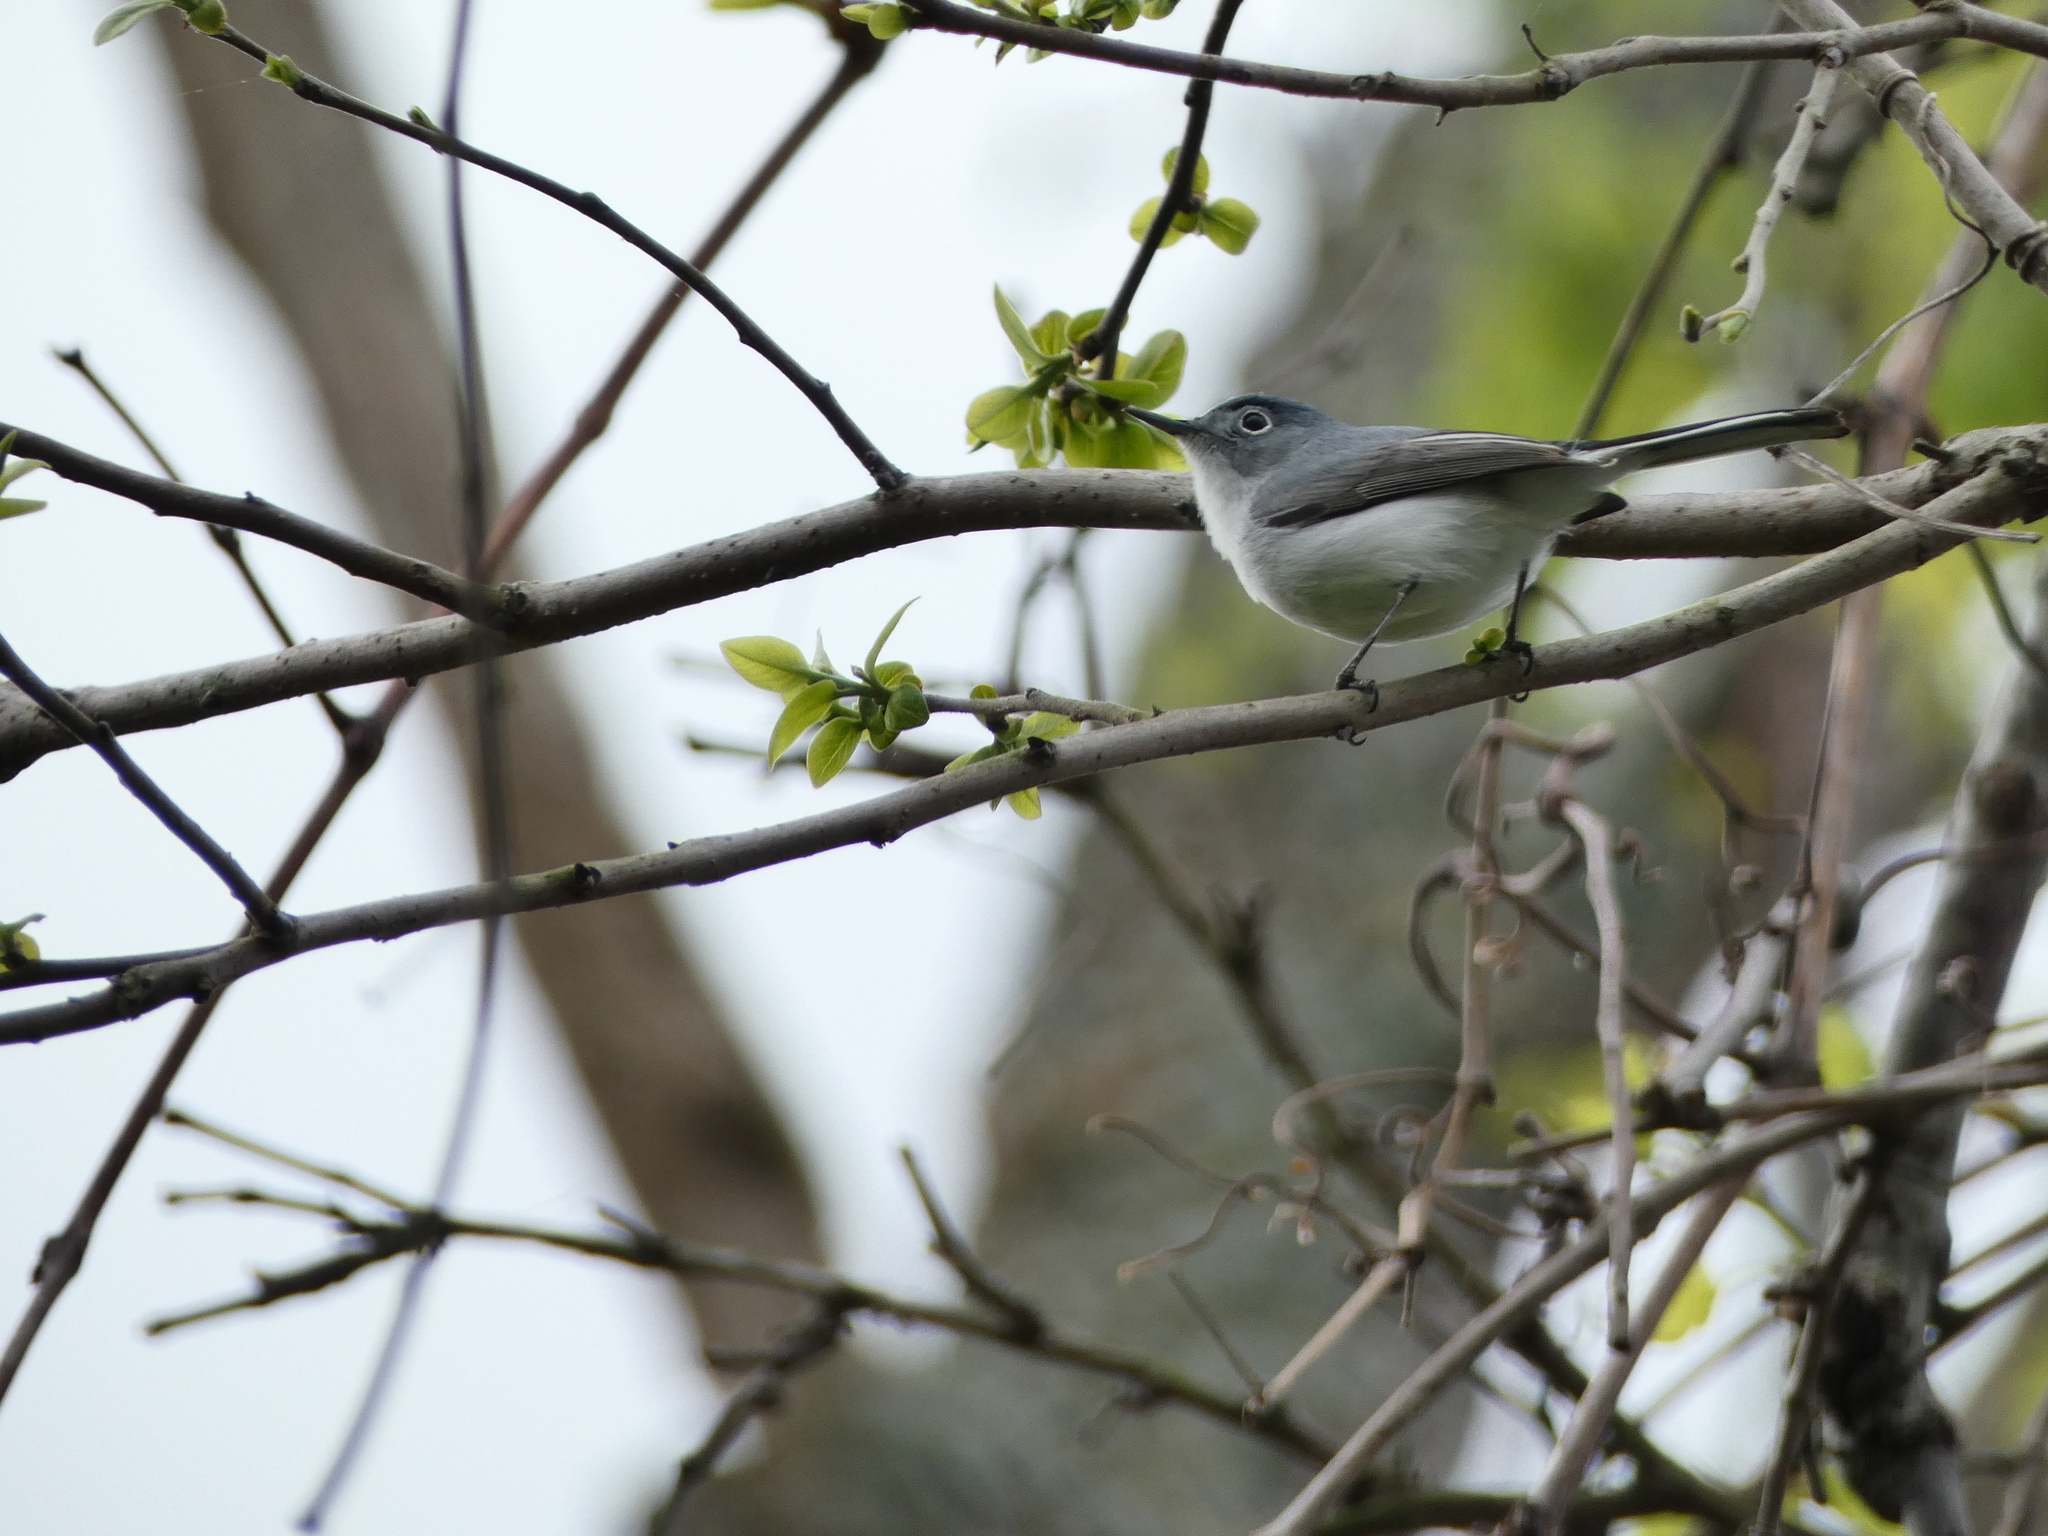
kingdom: Animalia
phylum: Chordata
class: Aves
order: Passeriformes
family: Polioptilidae
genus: Polioptila
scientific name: Polioptila caerulea
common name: Blue-gray gnatcatcher
